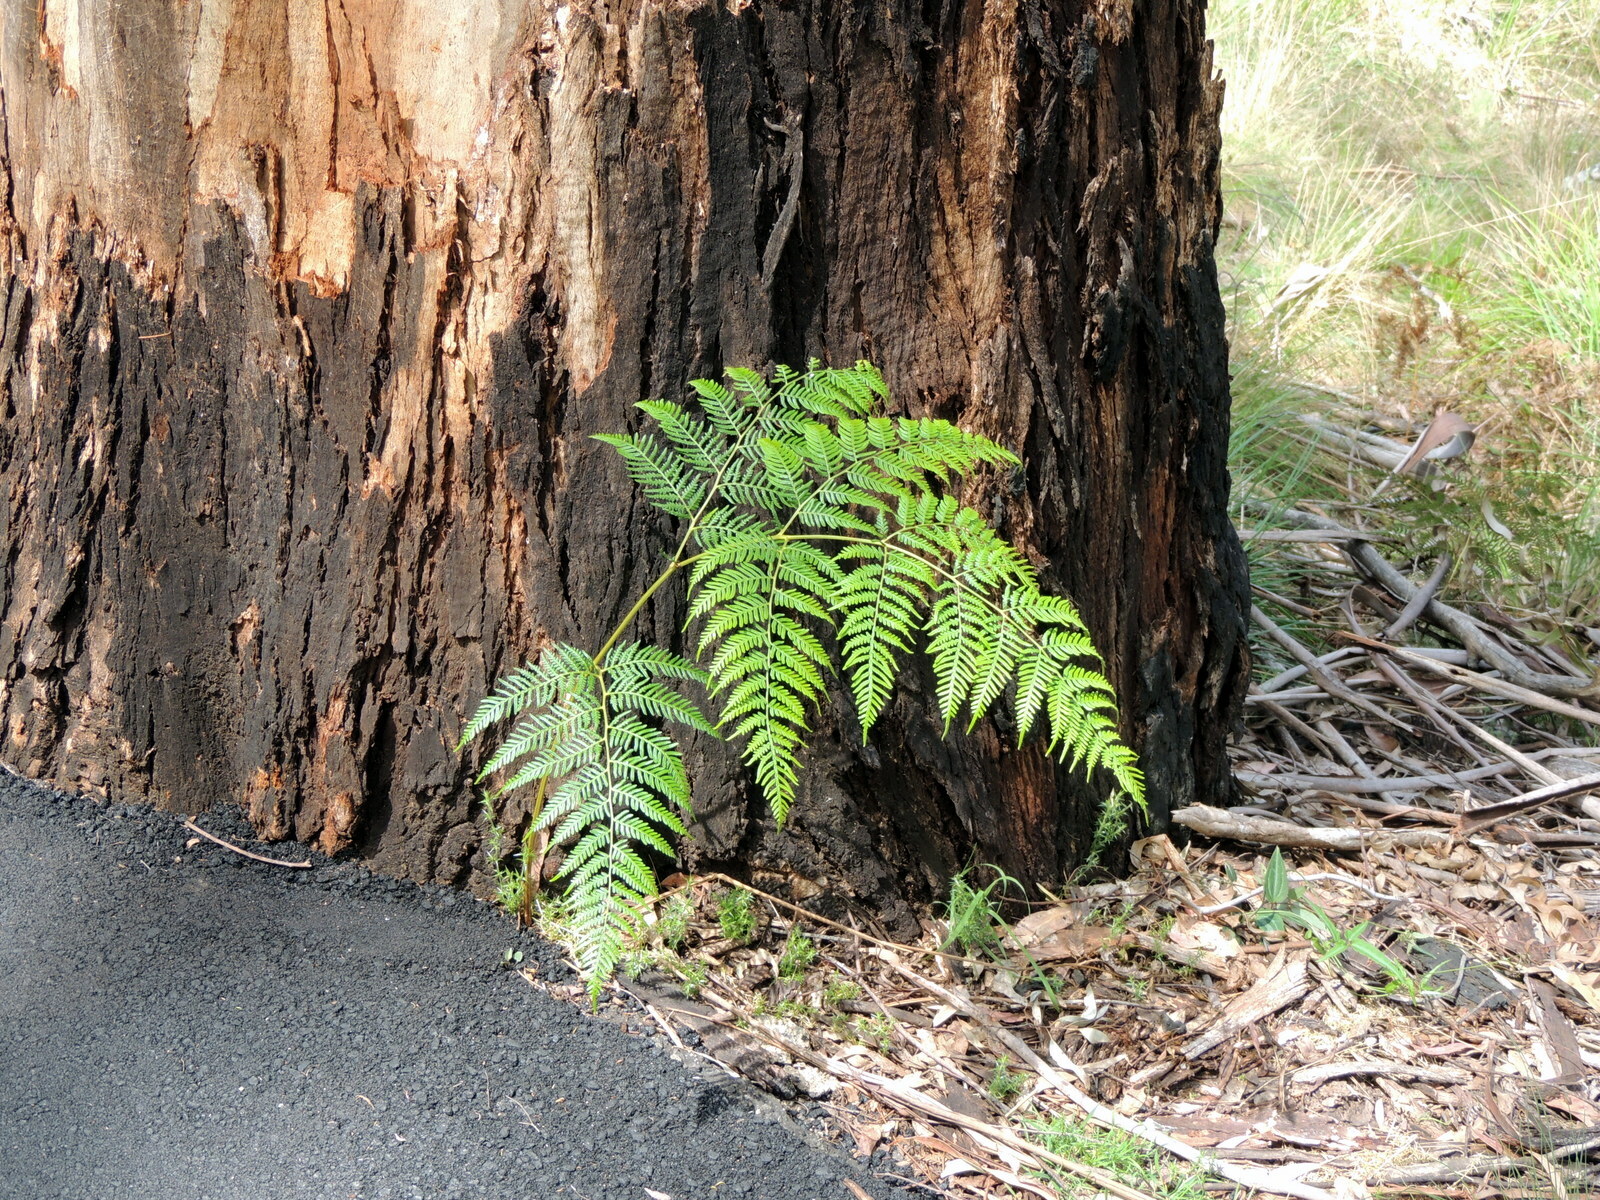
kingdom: Plantae
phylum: Tracheophyta
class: Polypodiopsida
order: Polypodiales
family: Dennstaedtiaceae
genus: Pteridium
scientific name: Pteridium esculentum
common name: Bracken fern
